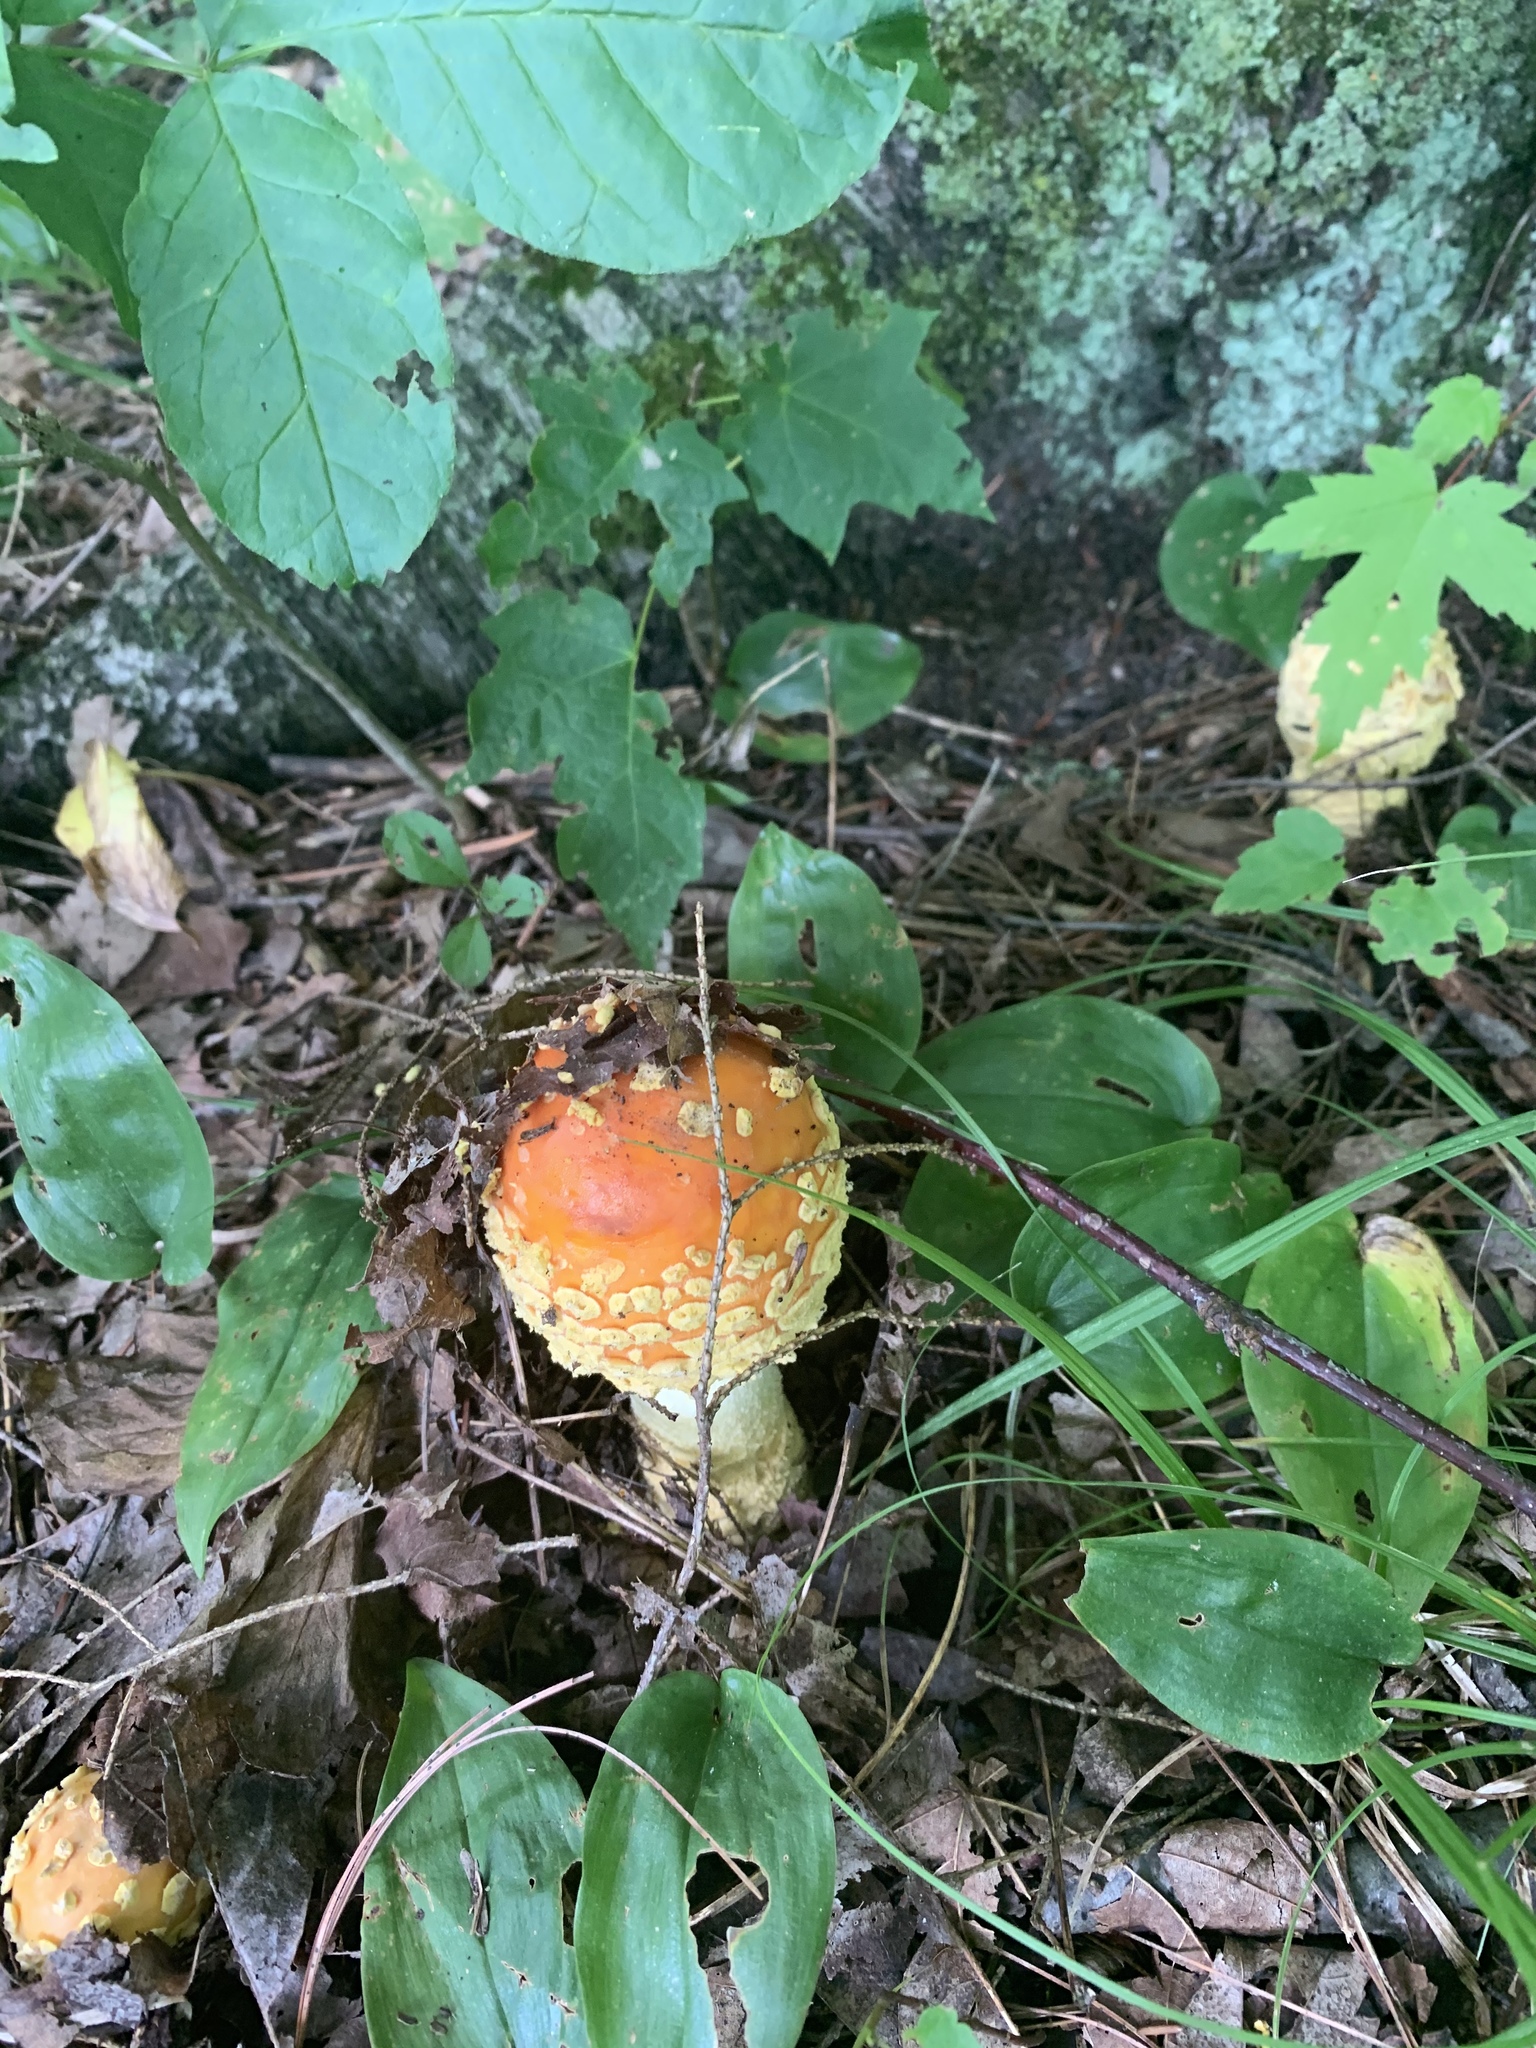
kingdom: Fungi
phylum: Basidiomycota
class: Agaricomycetes
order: Agaricales
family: Amanitaceae
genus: Amanita
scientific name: Amanita muscaria
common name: Fly agaric
